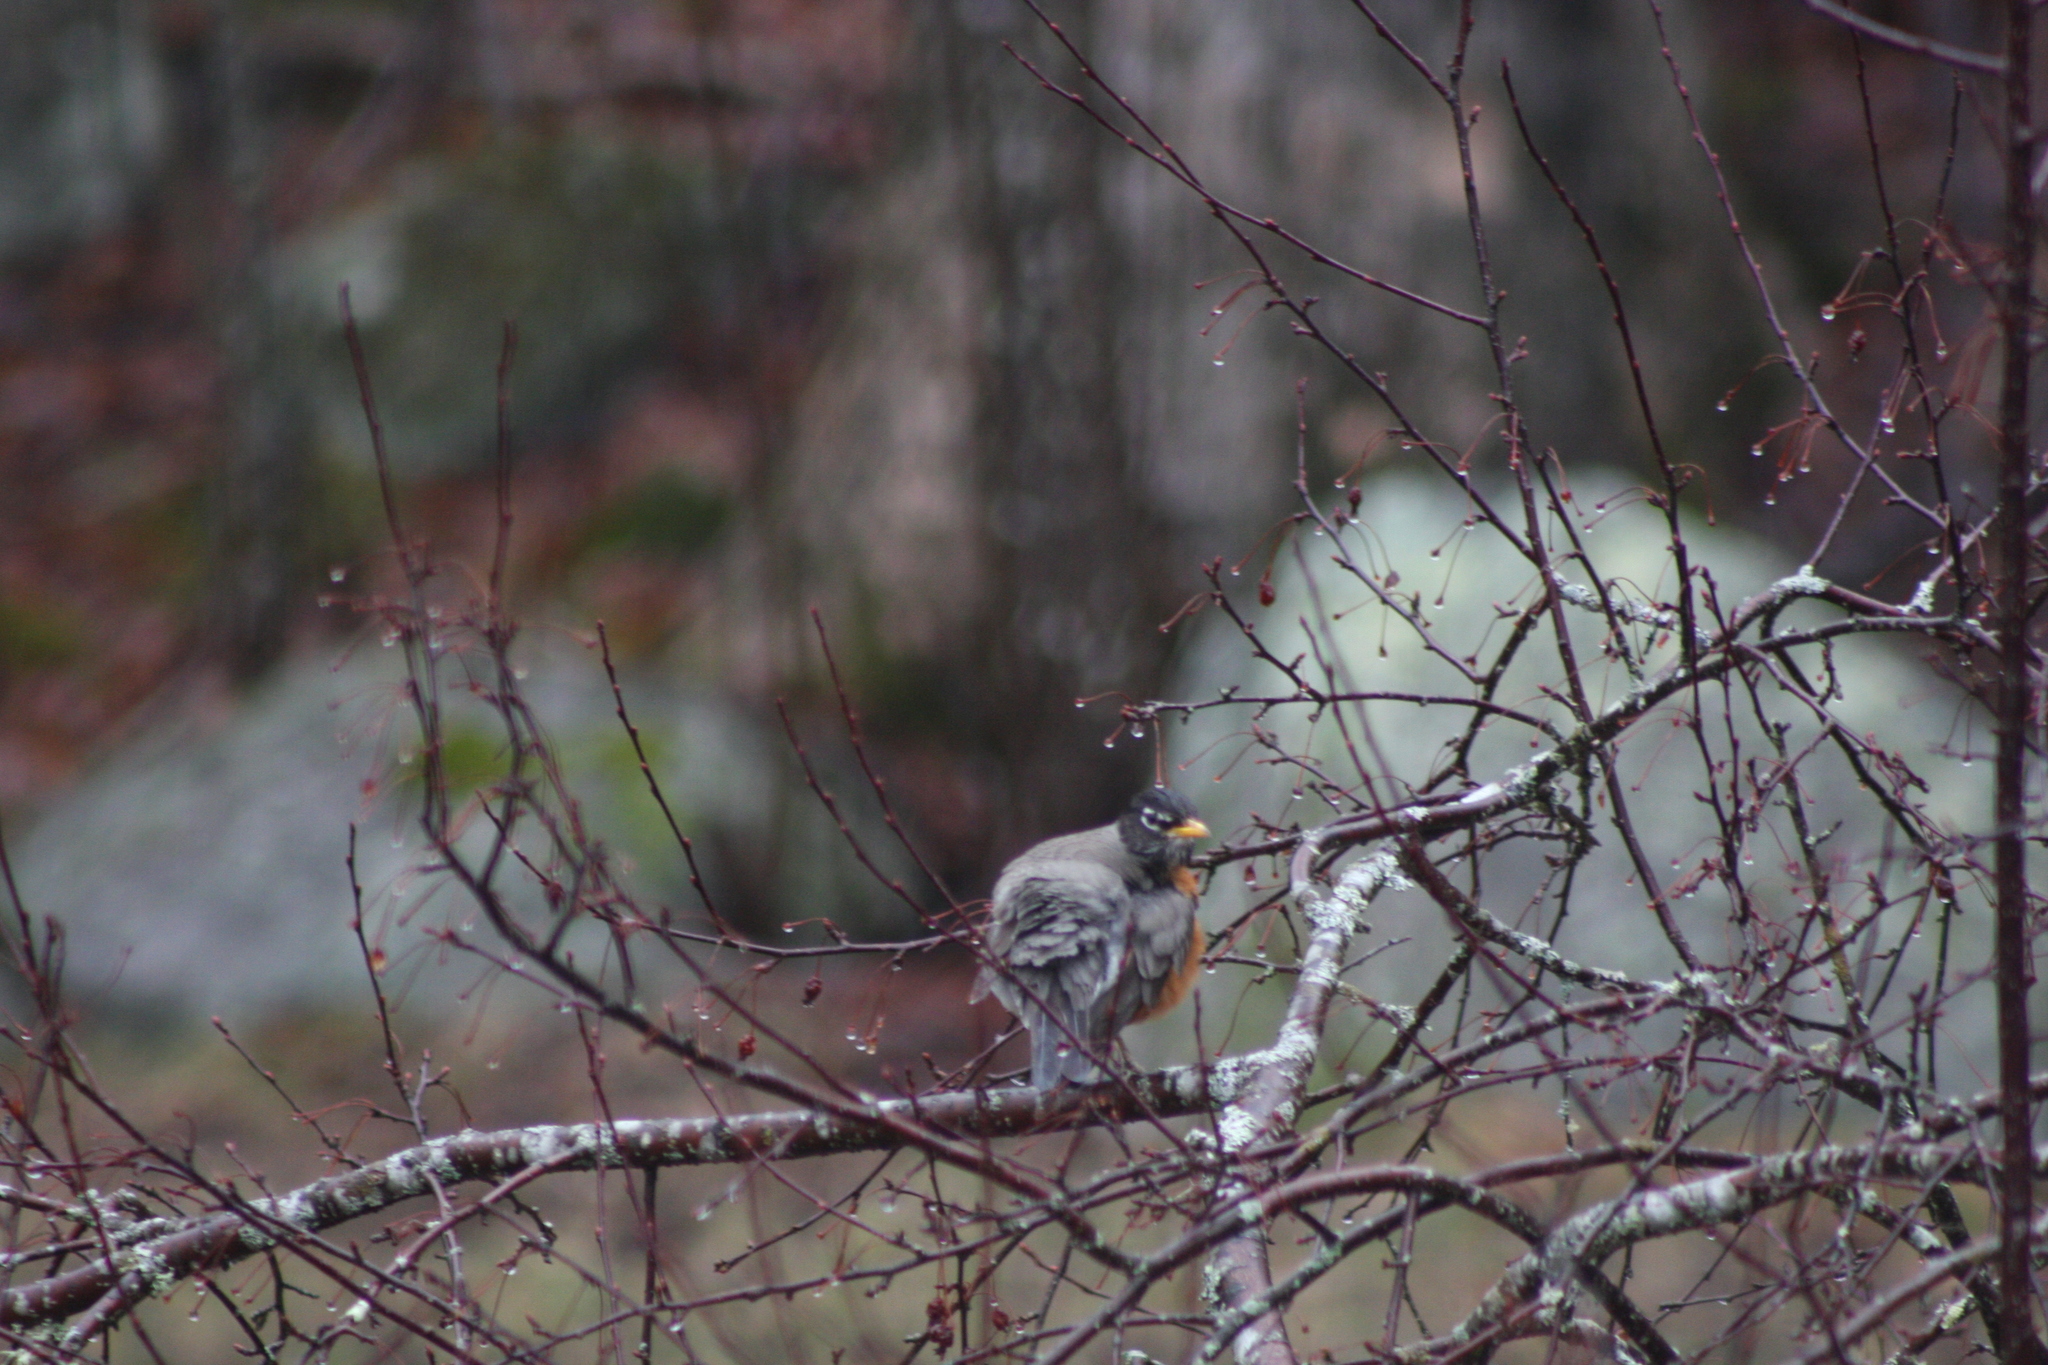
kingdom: Animalia
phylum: Chordata
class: Aves
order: Passeriformes
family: Turdidae
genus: Turdus
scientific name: Turdus migratorius
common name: American robin
